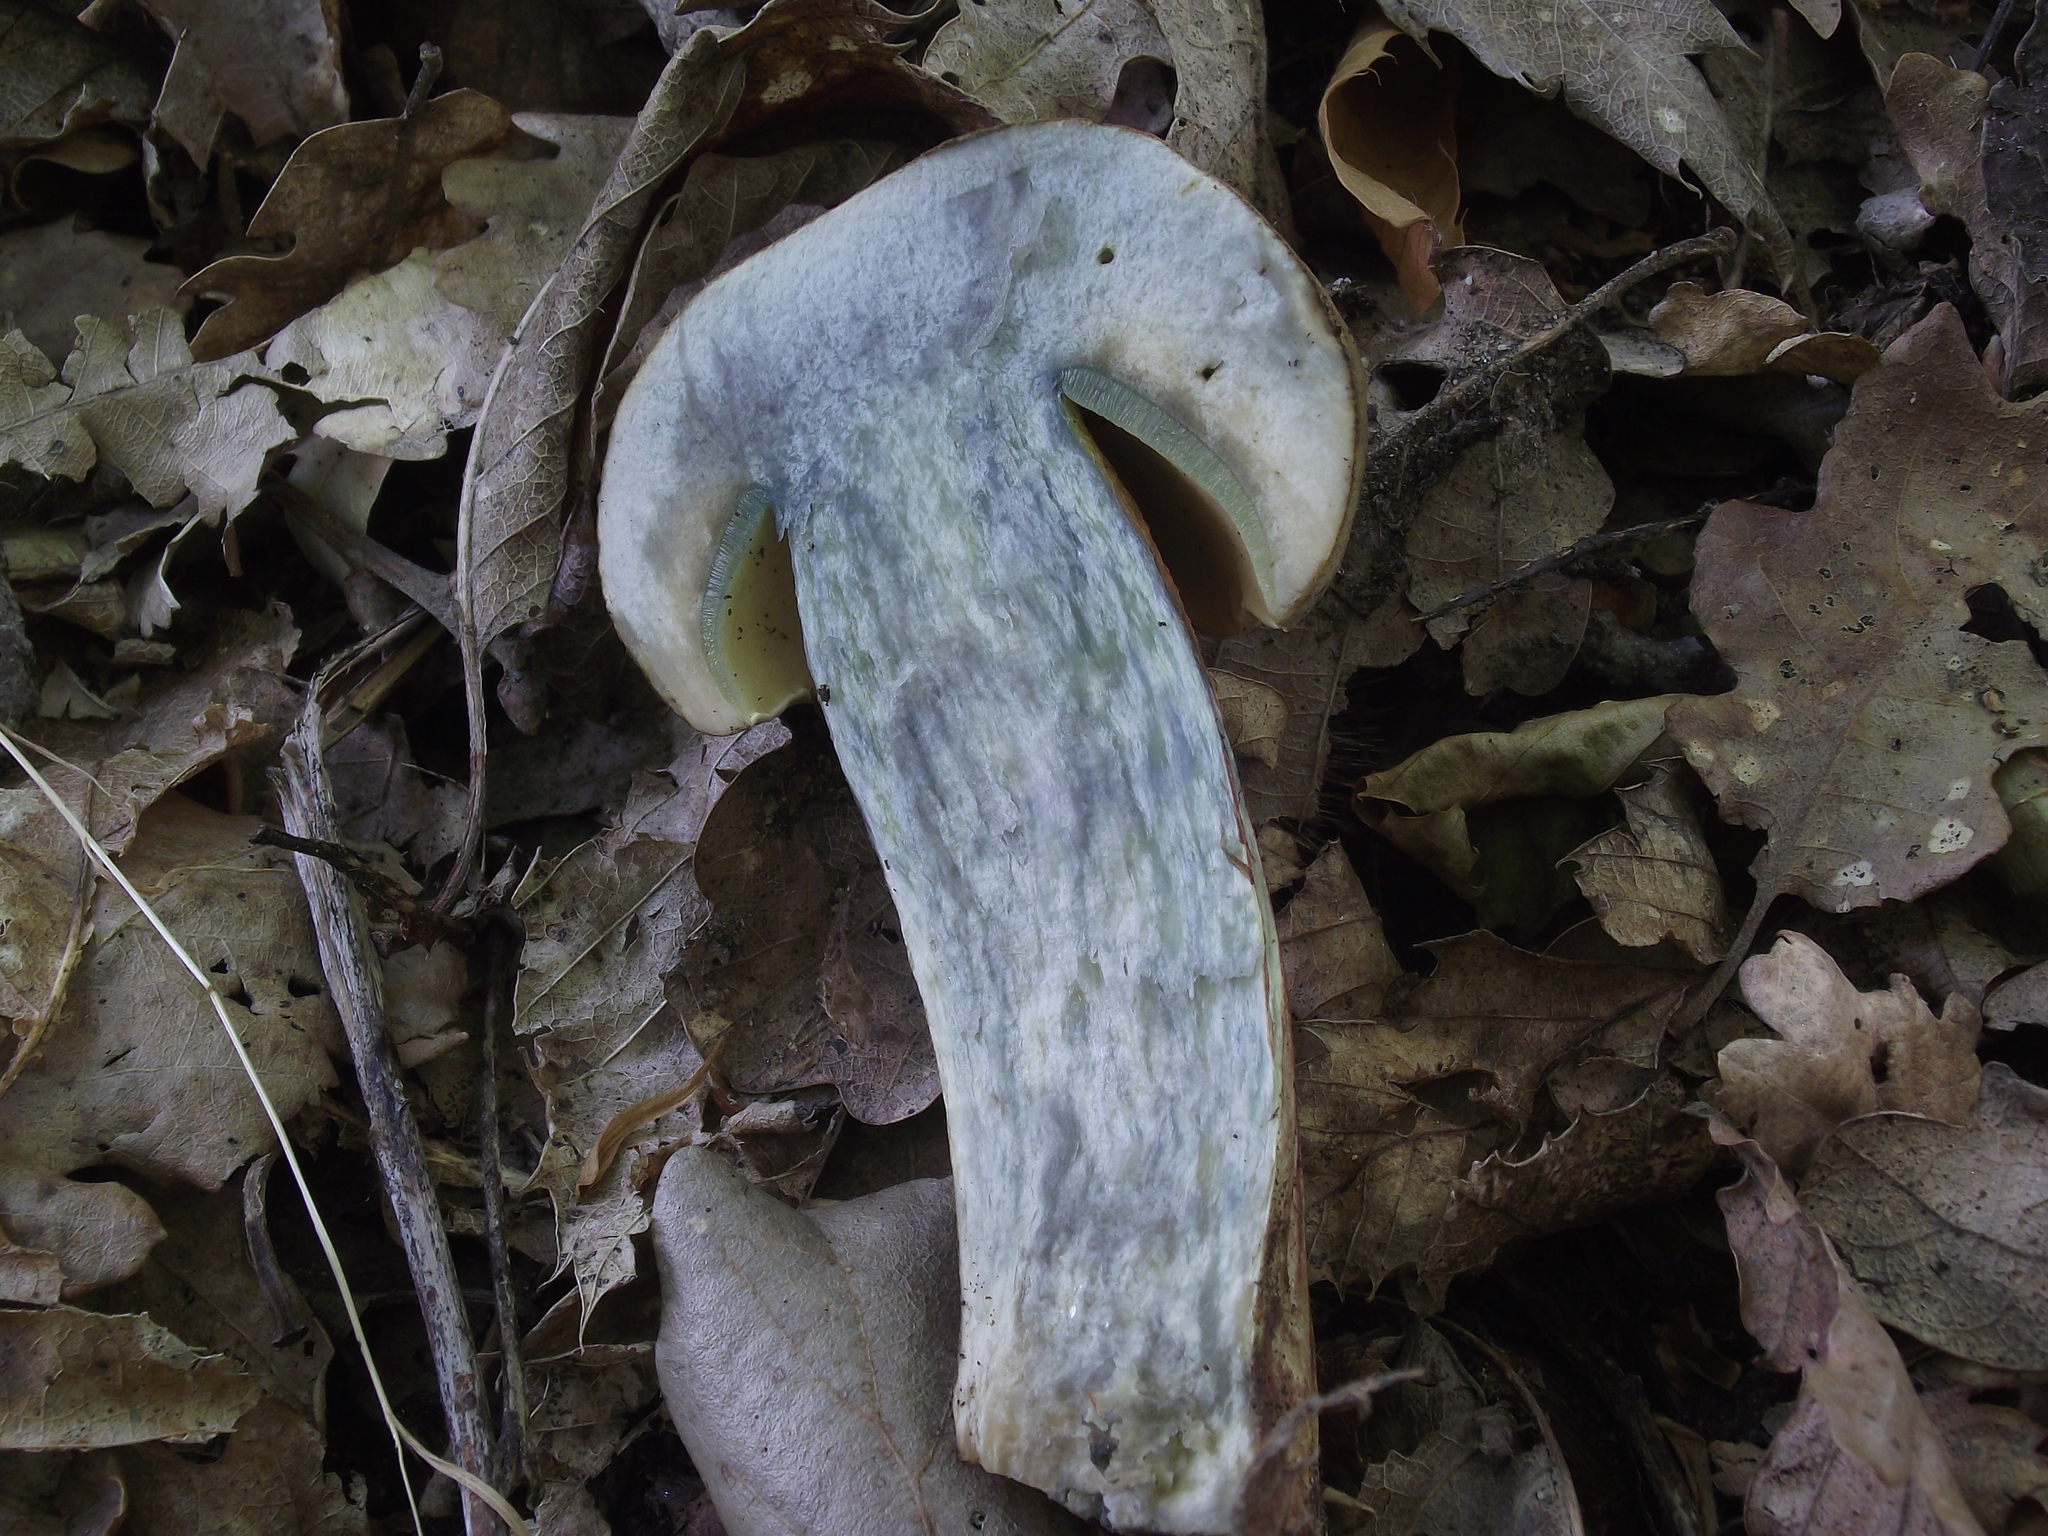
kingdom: Fungi
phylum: Basidiomycota
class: Agaricomycetes
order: Boletales
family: Boletaceae
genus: Caloboletus
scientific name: Caloboletus calopus
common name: Bitter beech bolete
